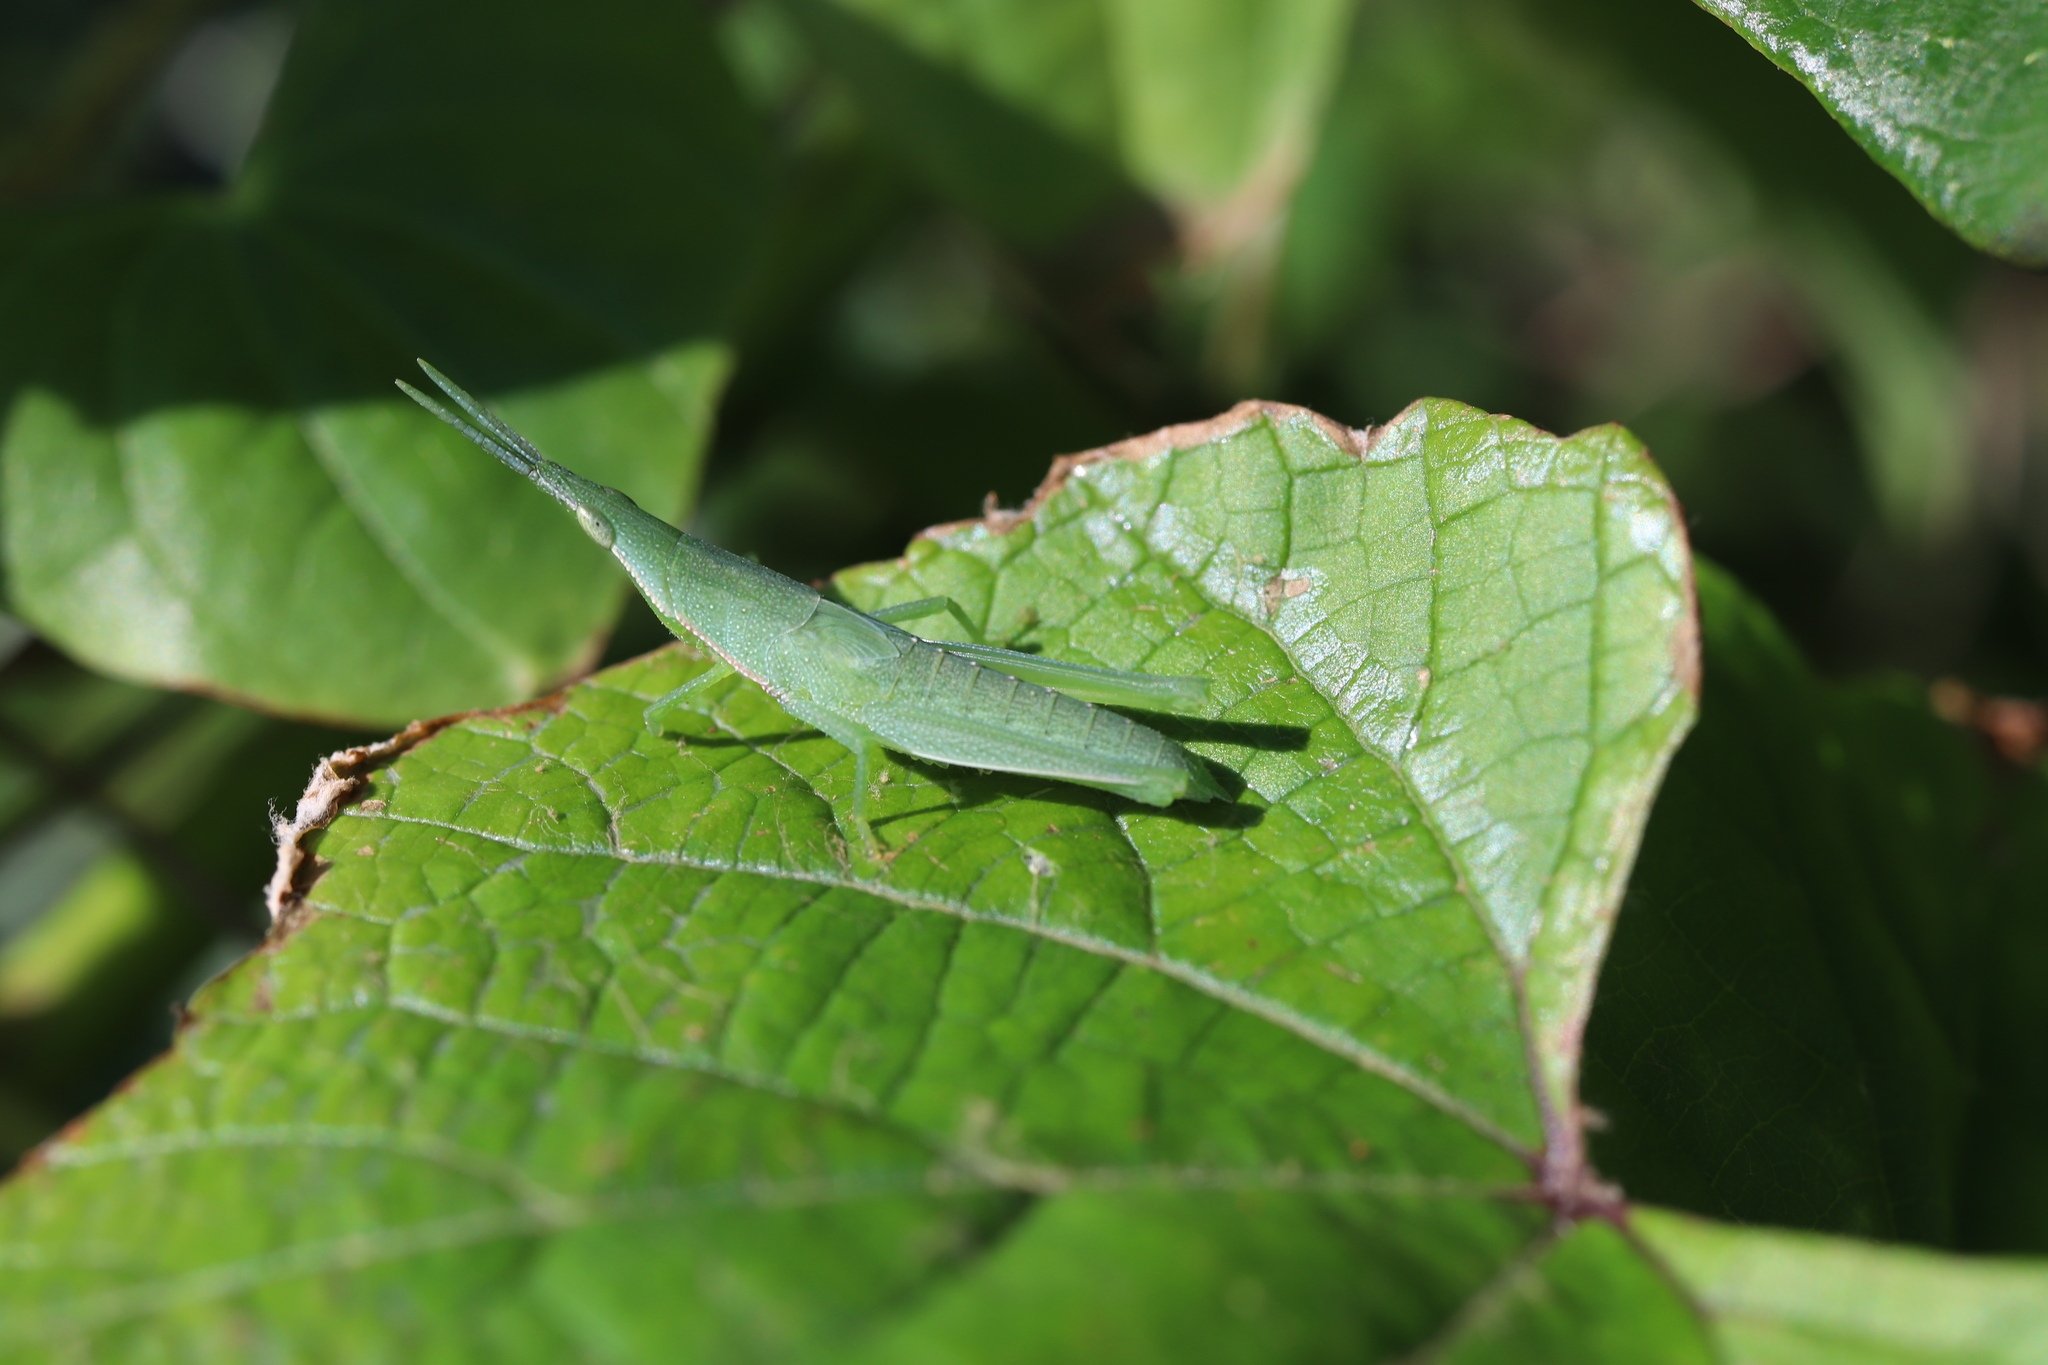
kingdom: Animalia
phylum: Arthropoda
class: Insecta
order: Orthoptera
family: Pyrgomorphidae
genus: Atractomorpha
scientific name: Atractomorpha lata
